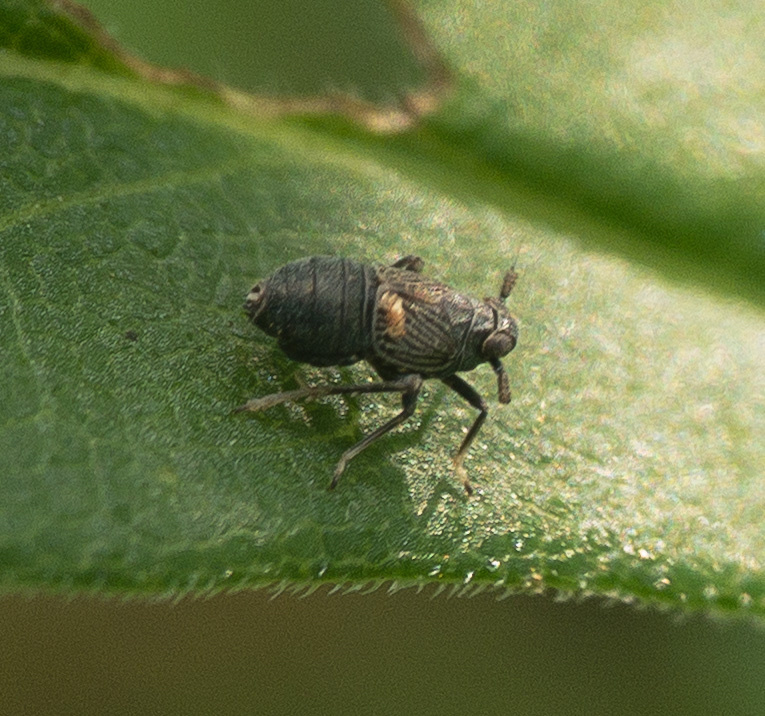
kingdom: Animalia
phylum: Arthropoda
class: Insecta
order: Hemiptera
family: Delphacidae
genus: Pissonotus
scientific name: Pissonotus brunneus
